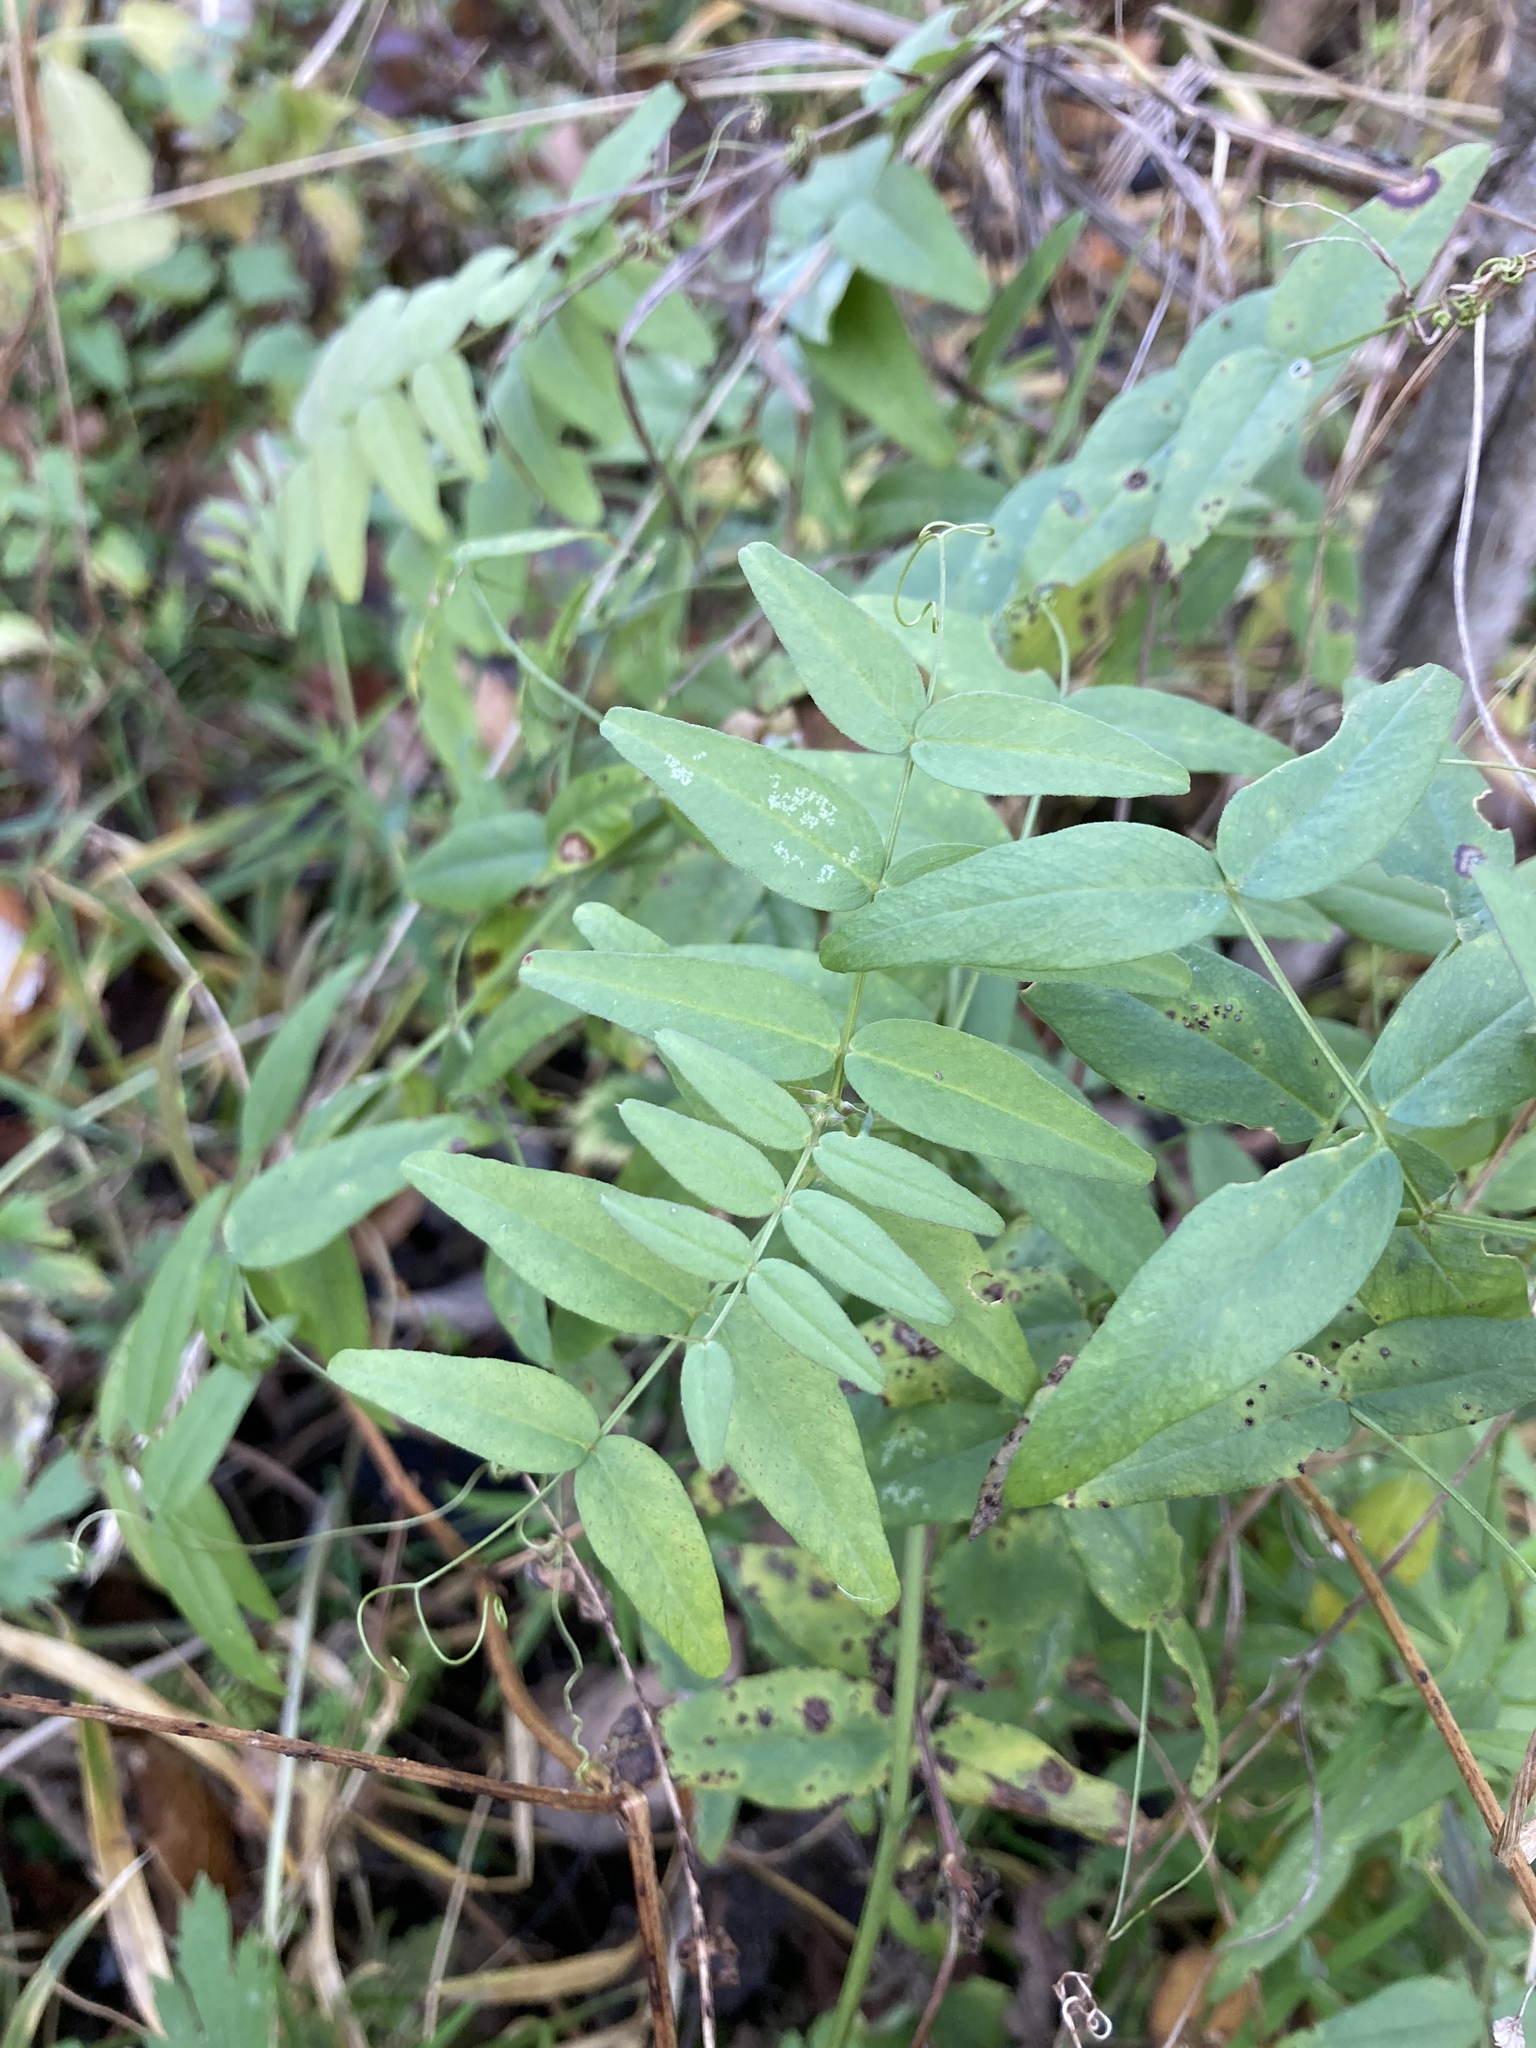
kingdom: Plantae
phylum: Tracheophyta
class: Magnoliopsida
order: Fabales
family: Fabaceae
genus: Vicia
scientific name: Vicia sepium
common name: Bush vetch
